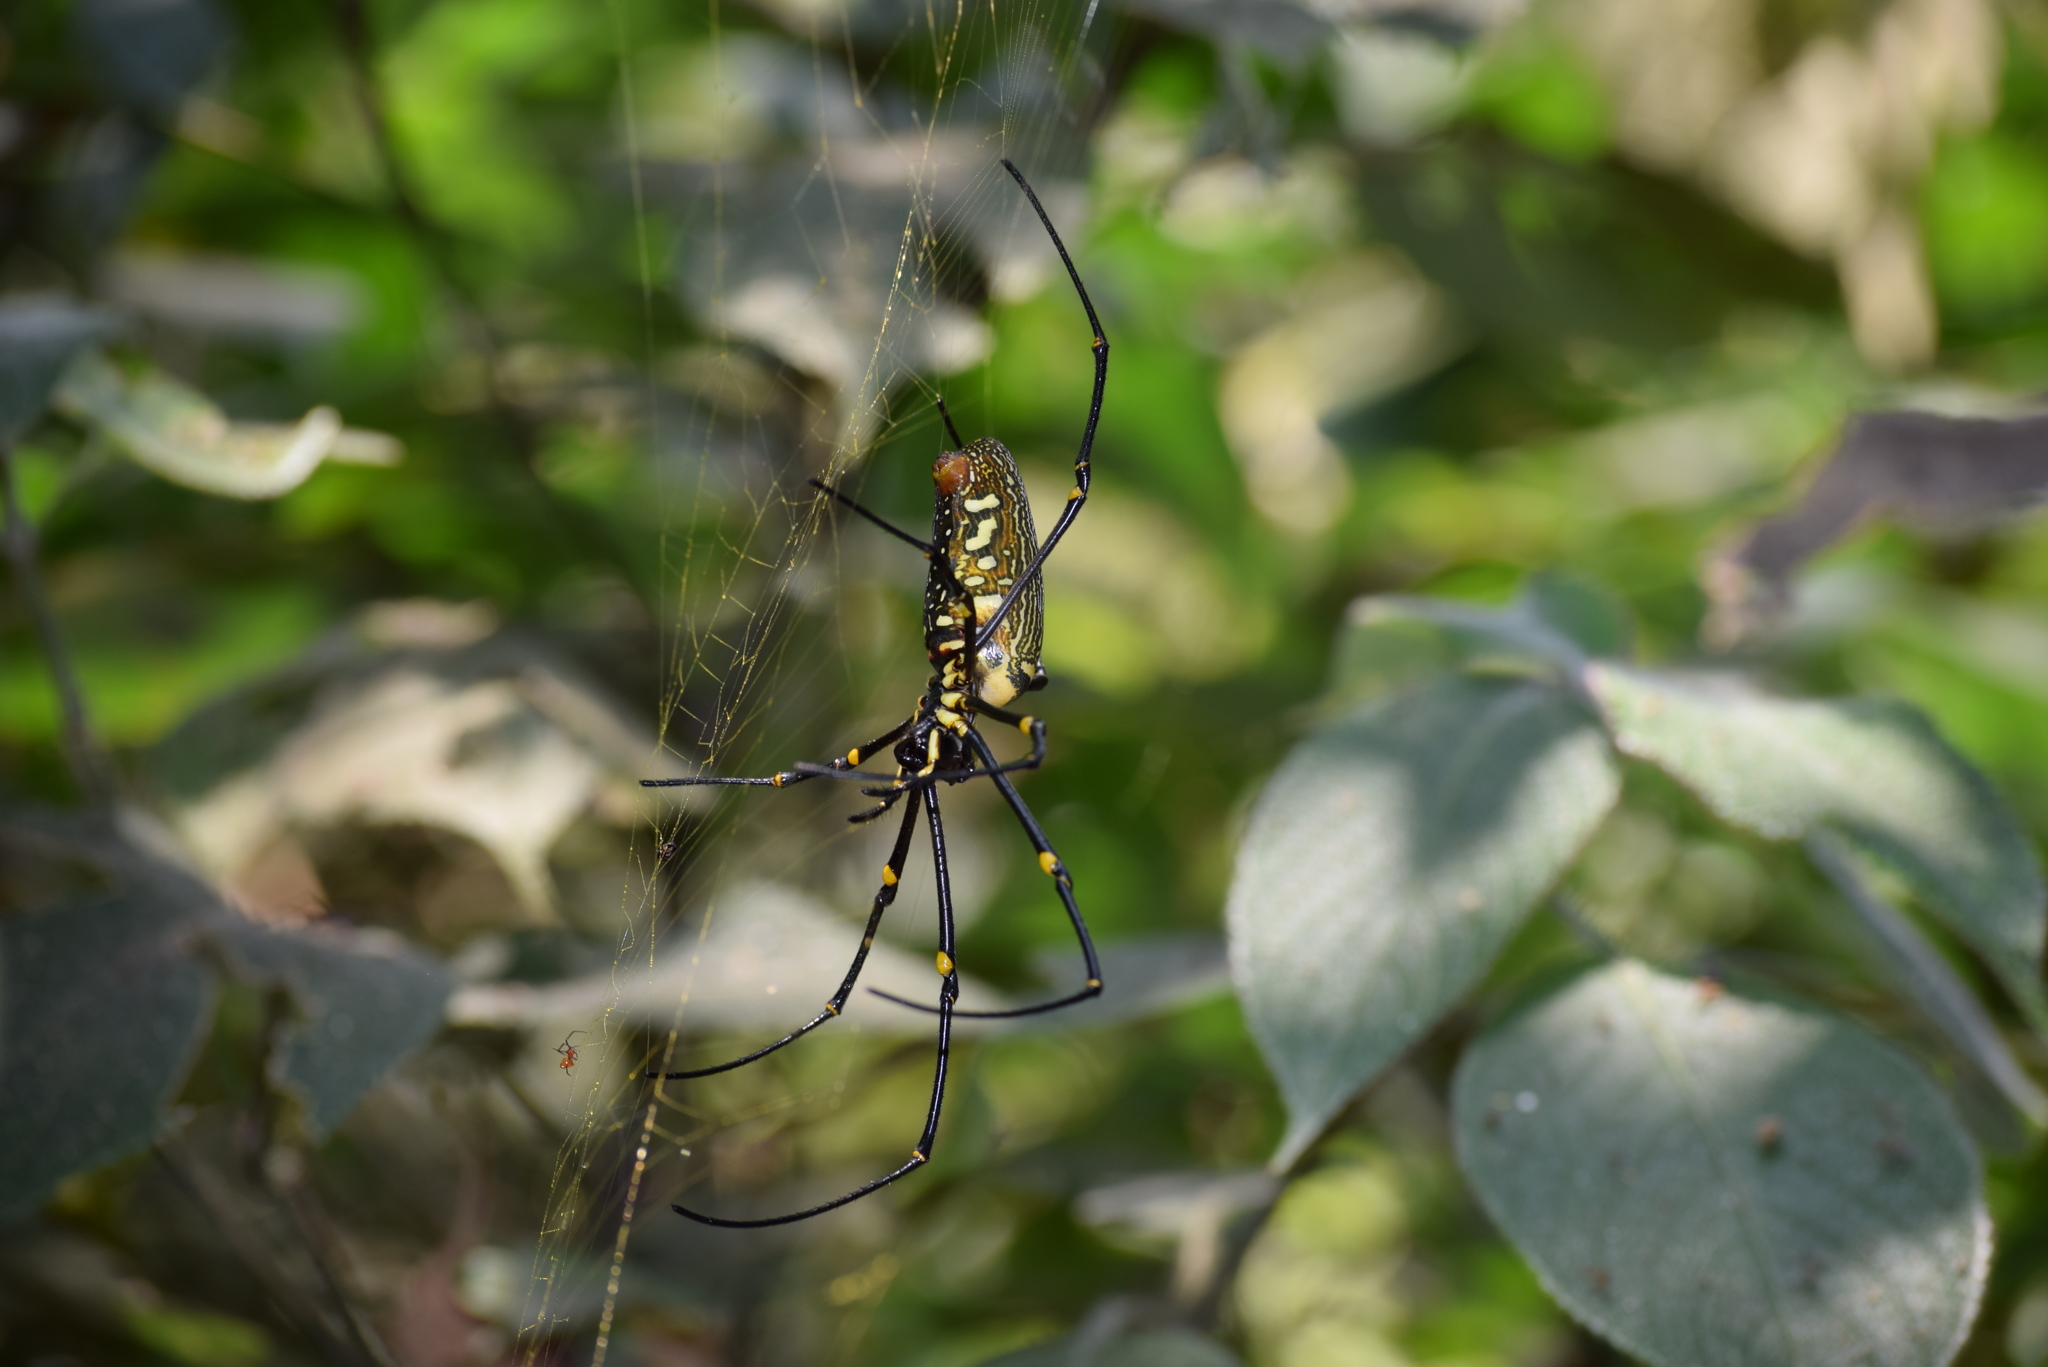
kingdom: Animalia
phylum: Arthropoda
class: Arachnida
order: Araneae
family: Araneidae
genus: Nephila
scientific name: Nephila pilipes
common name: Giant golden orb weaver
